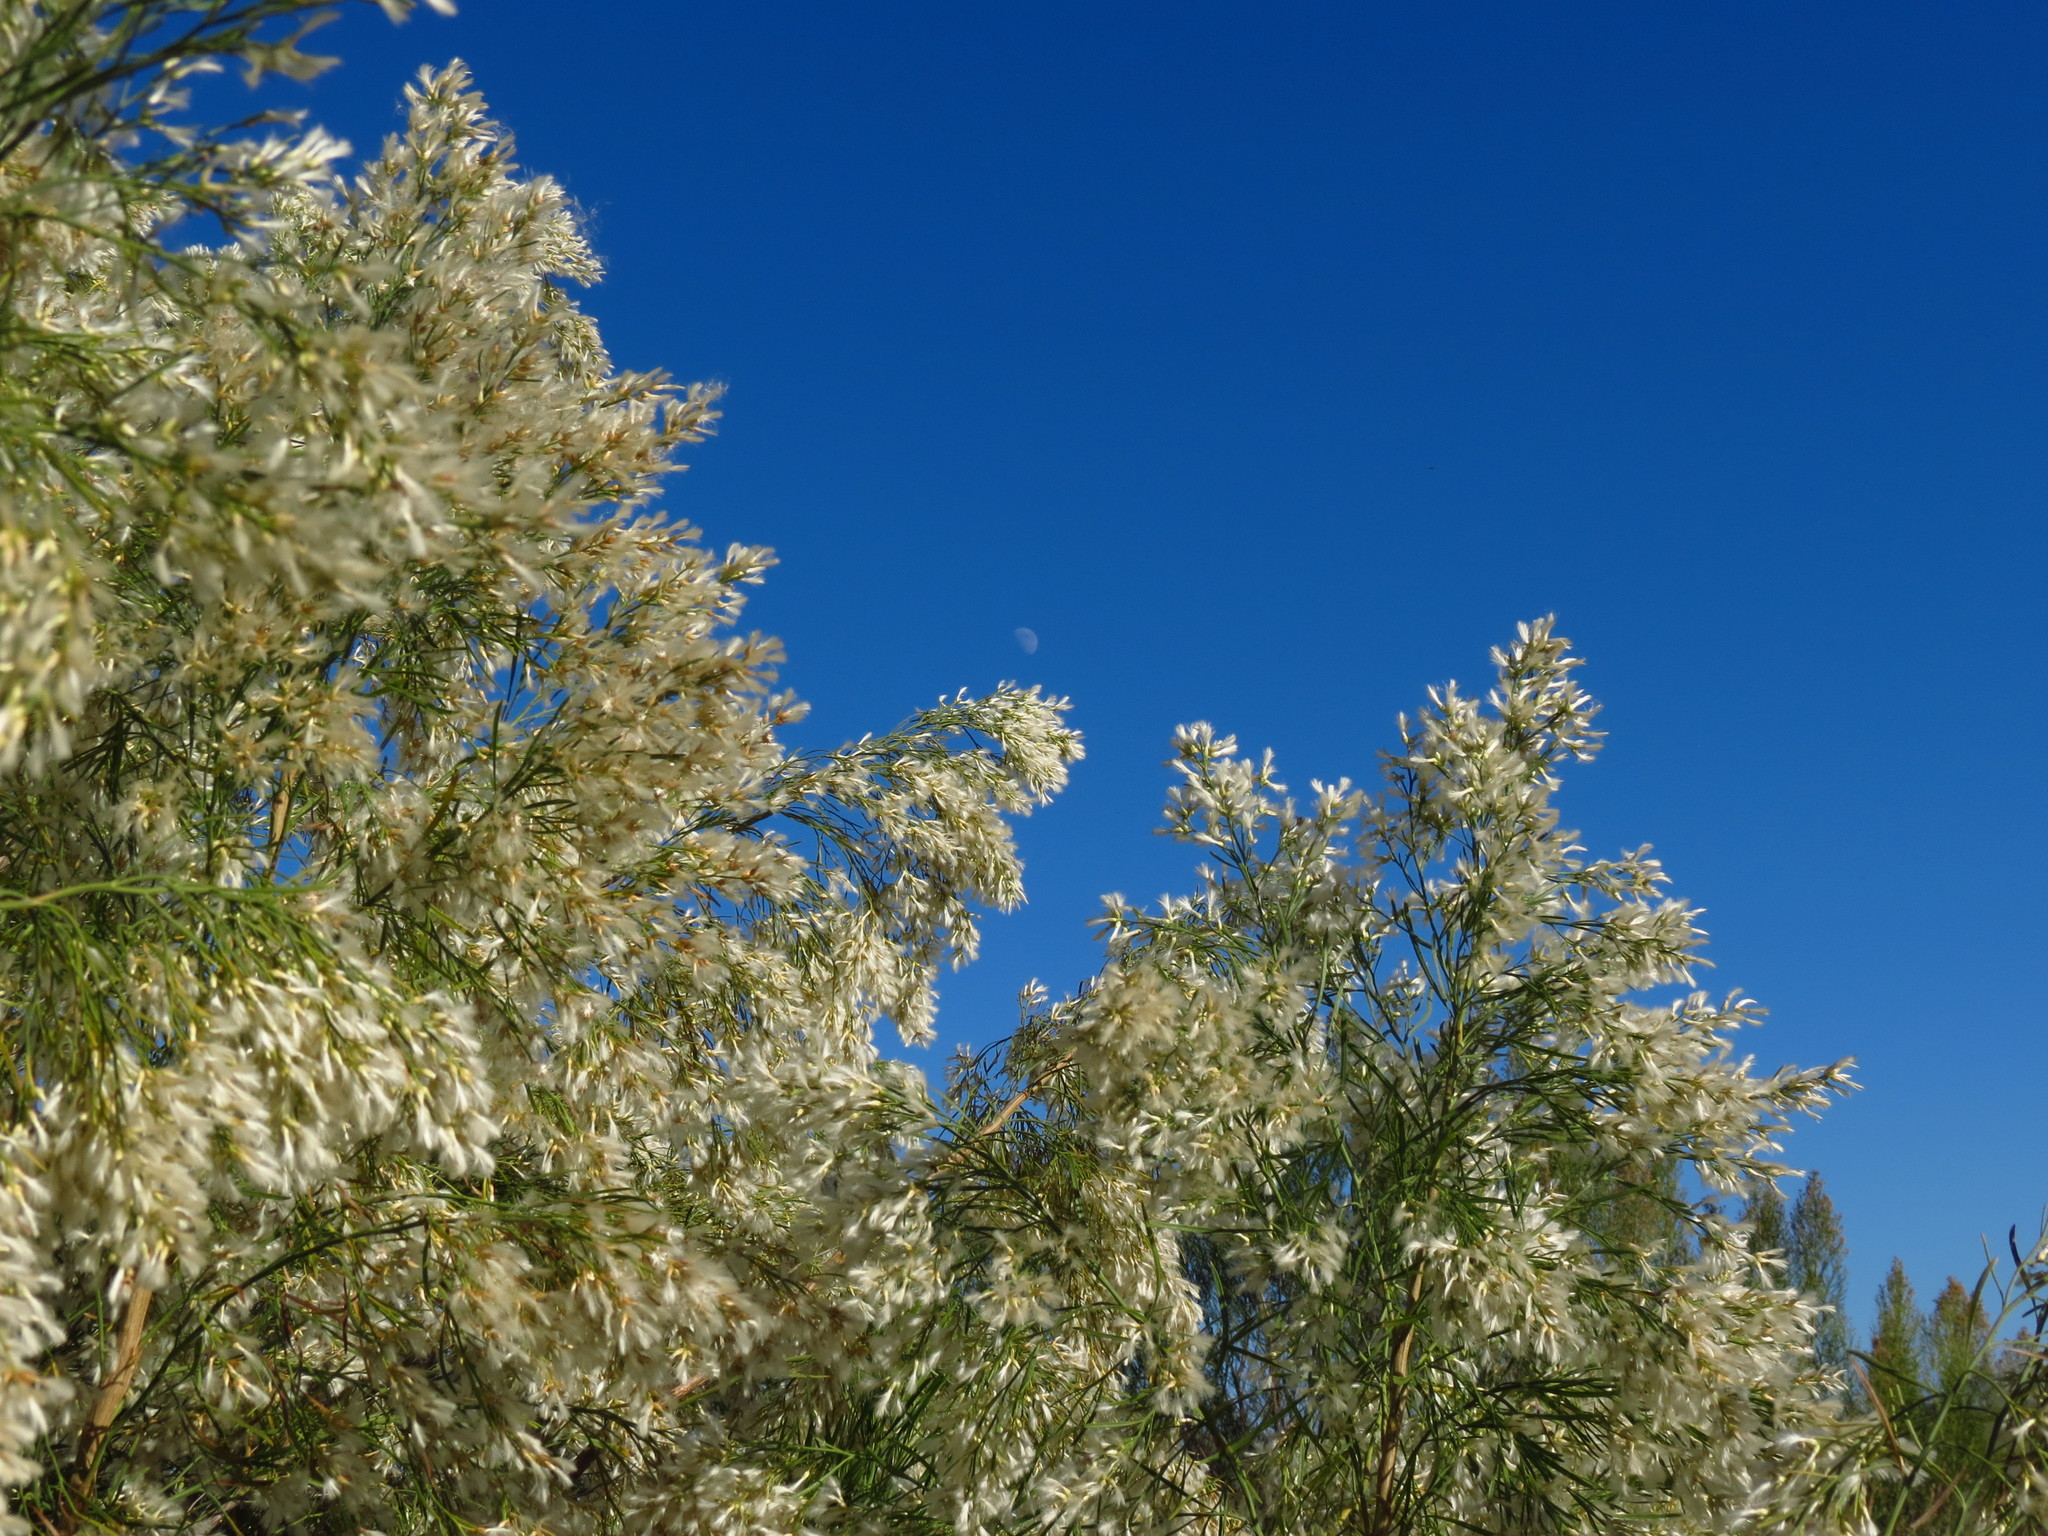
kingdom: Plantae
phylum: Tracheophyta
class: Magnoliopsida
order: Asterales
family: Asteraceae
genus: Baccharis
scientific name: Baccharis neglecta
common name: Roosevelt-weed
